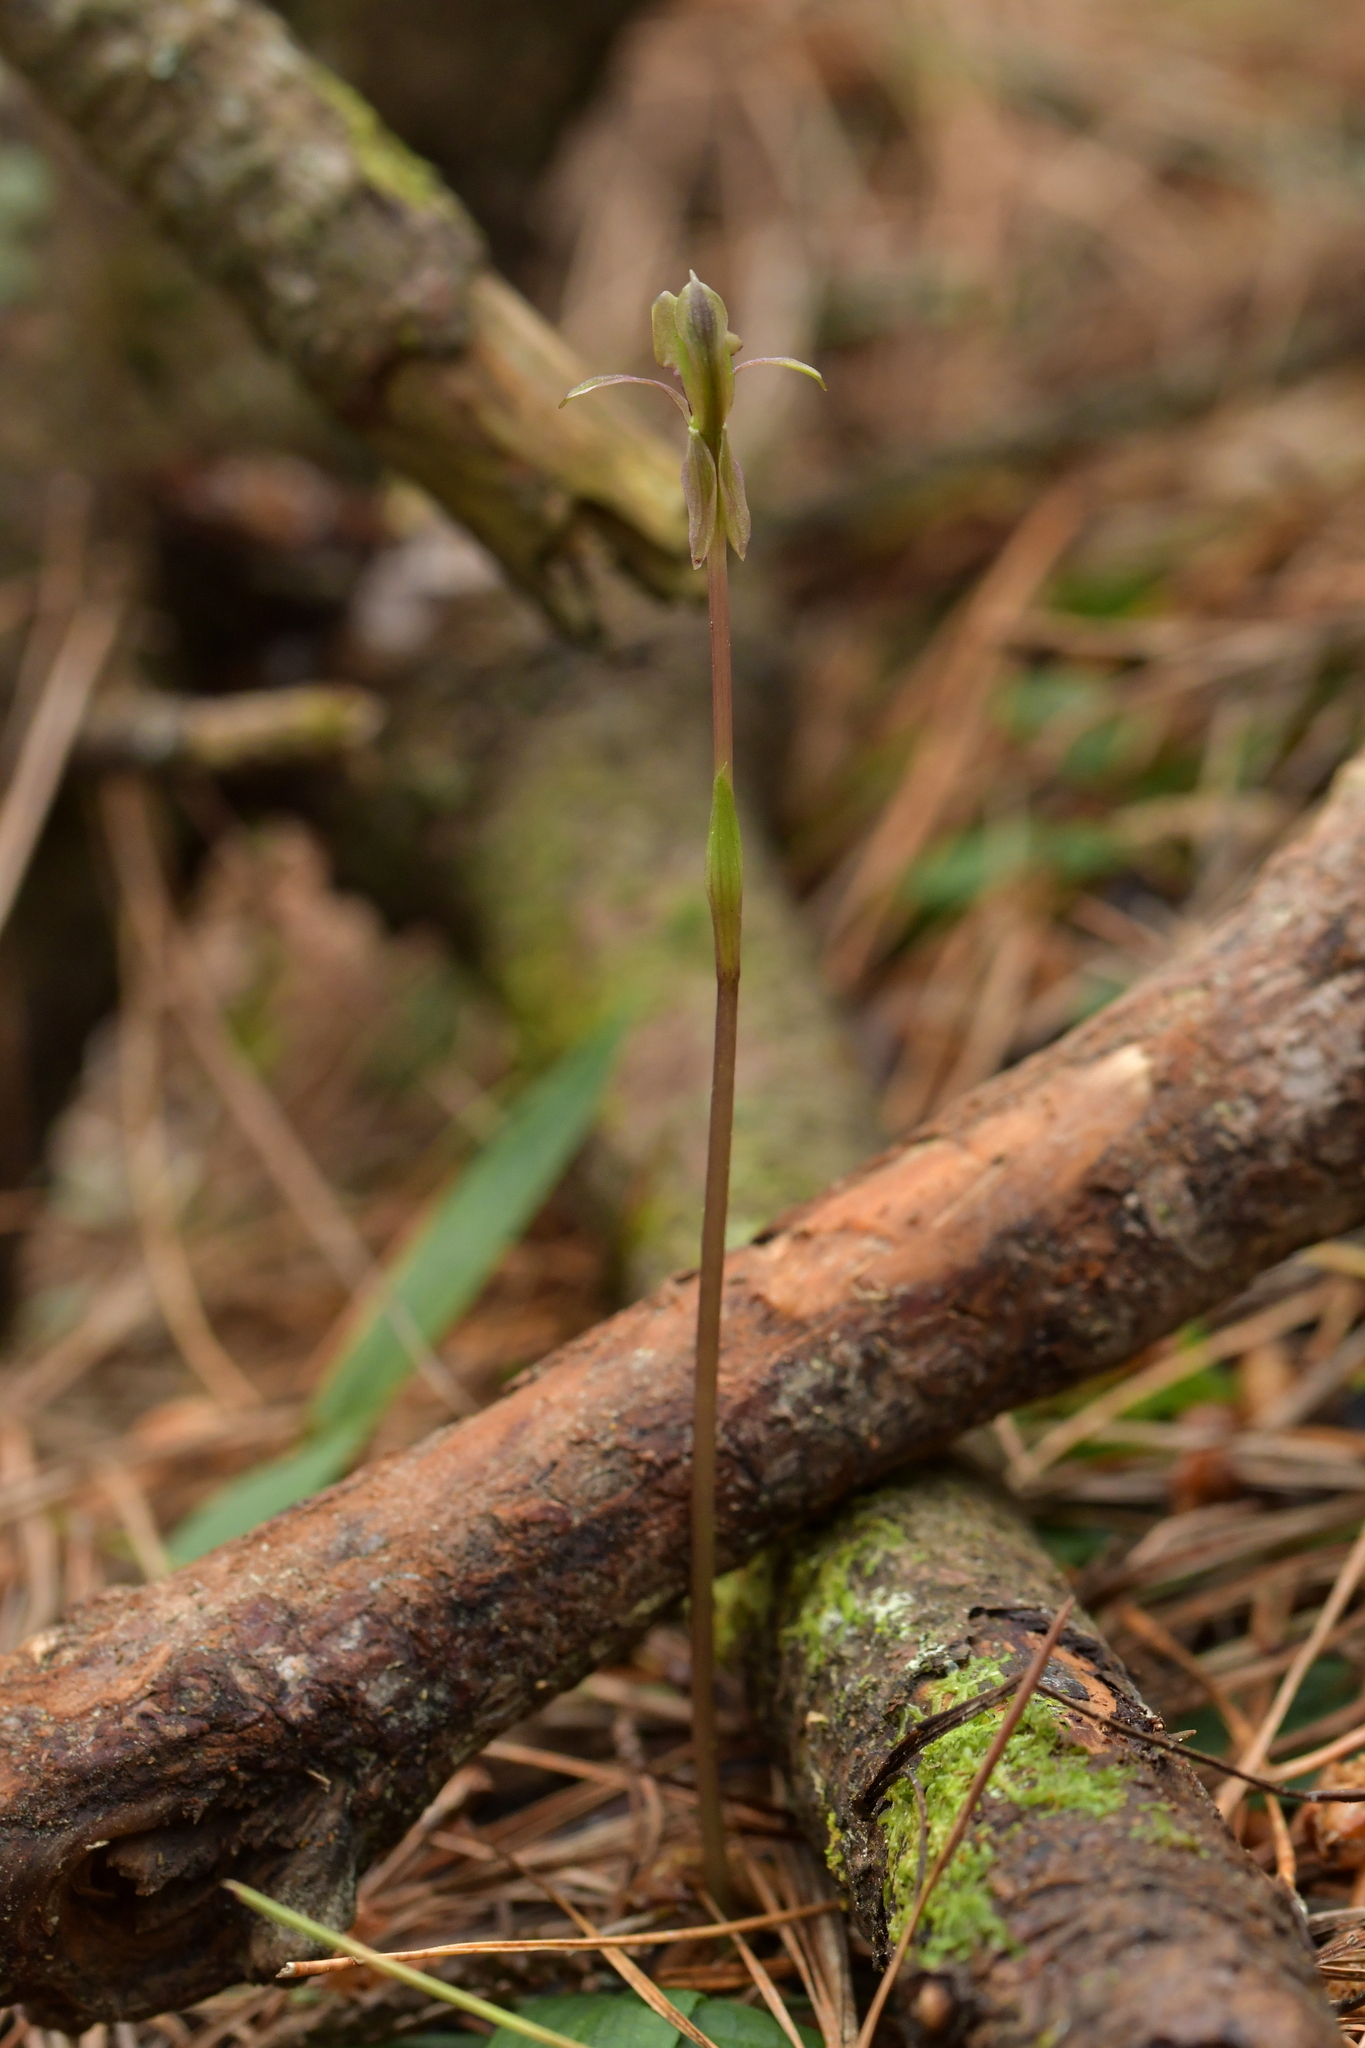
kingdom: Plantae
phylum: Tracheophyta
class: Liliopsida
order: Asparagales
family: Orchidaceae
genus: Chiloglottis
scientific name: Chiloglottis trapeziformis
